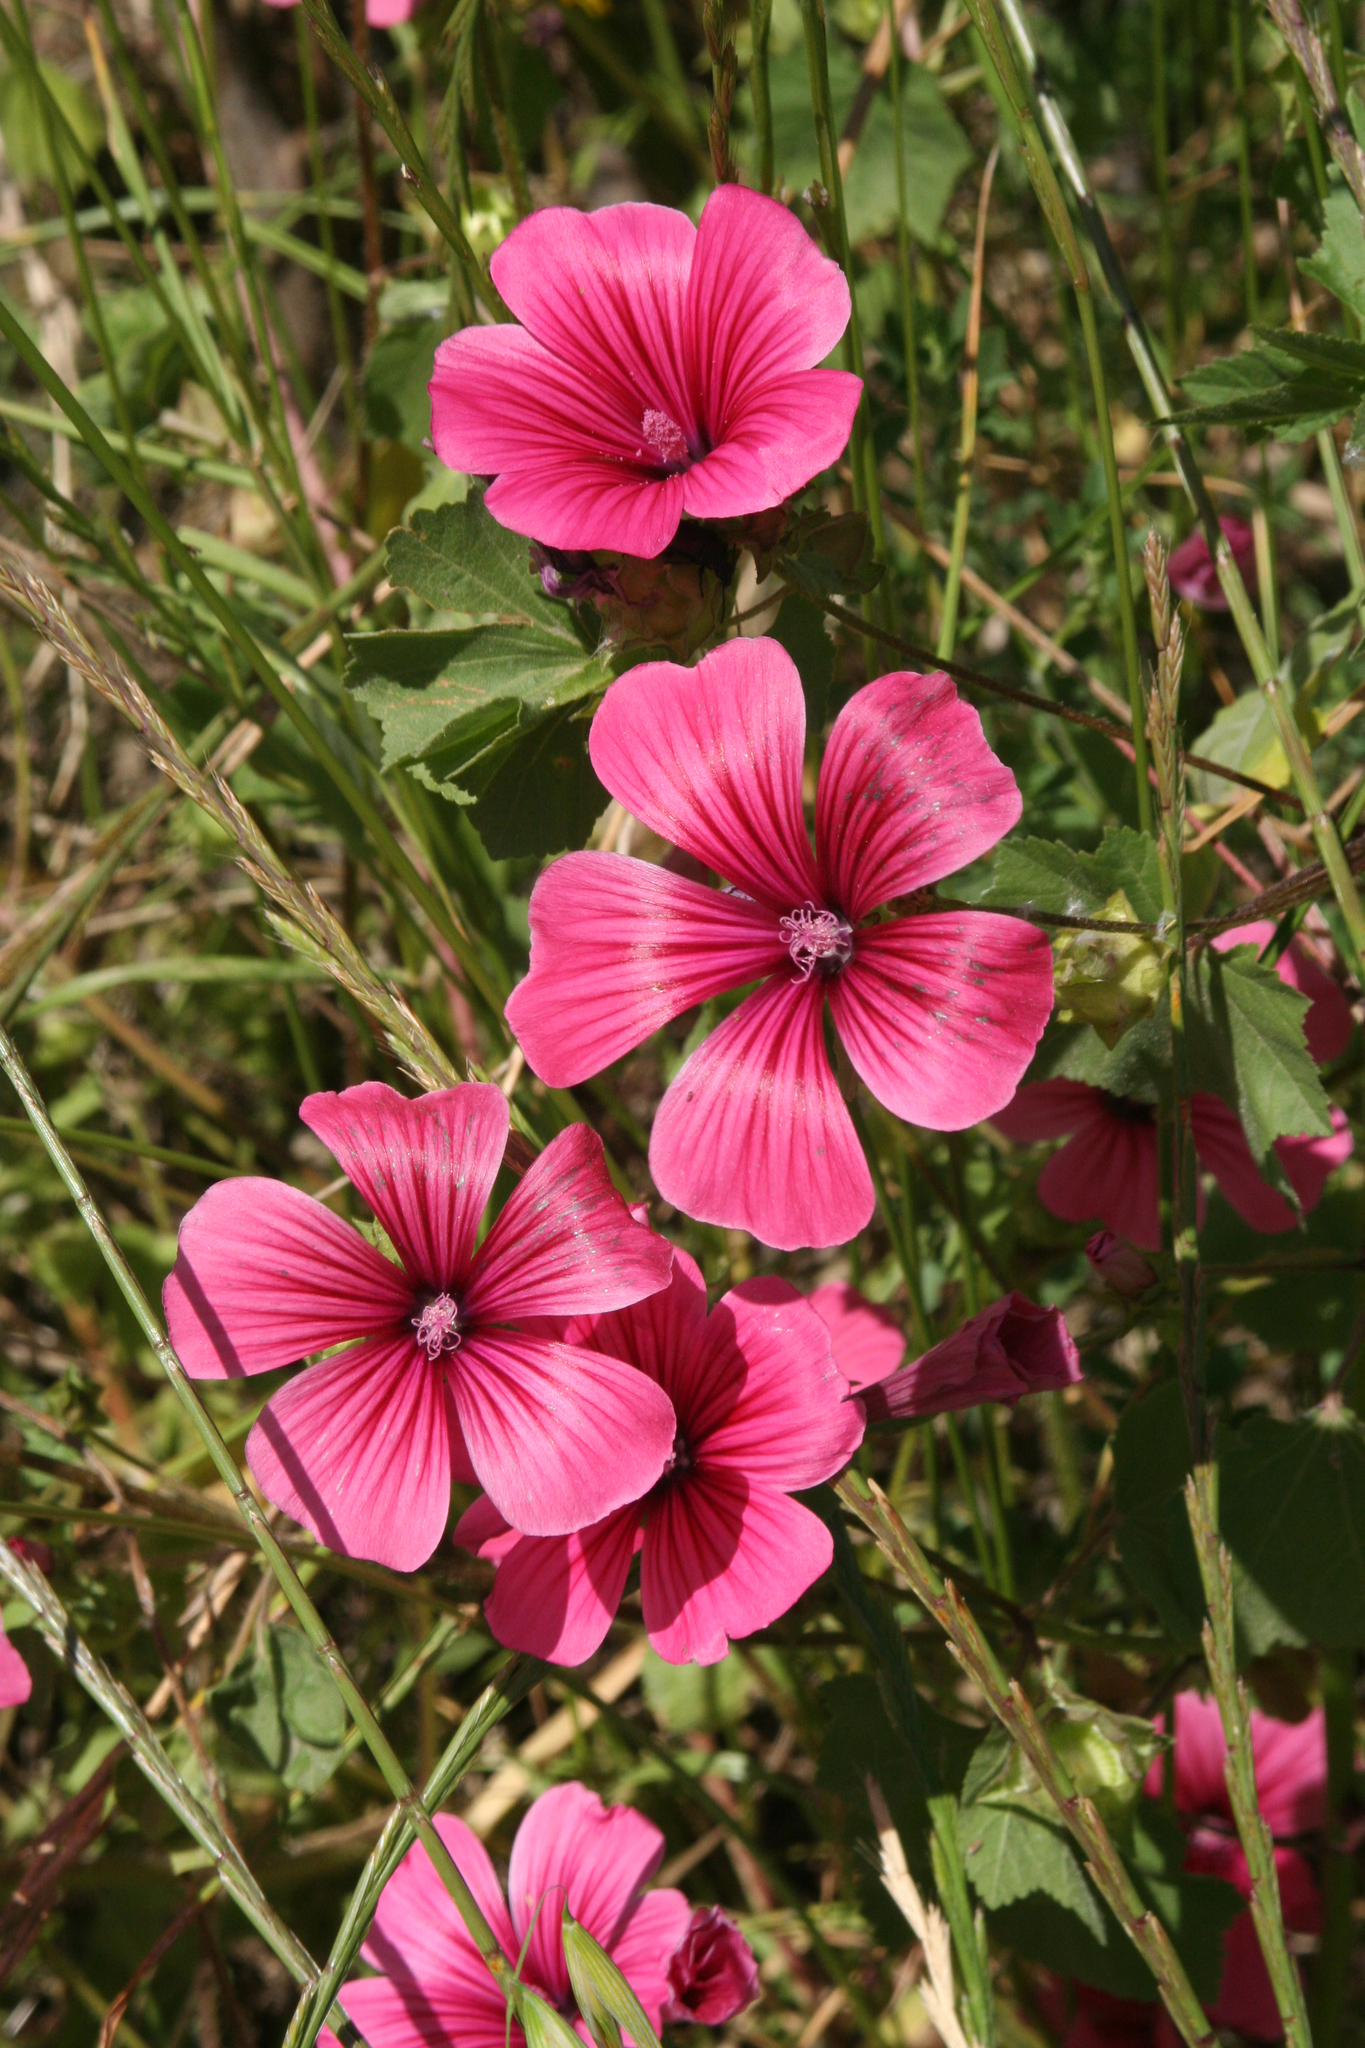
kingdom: Plantae
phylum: Tracheophyta
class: Magnoliopsida
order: Malvales
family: Malvaceae
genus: Malva
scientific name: Malva trimestris
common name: Royal mallow
